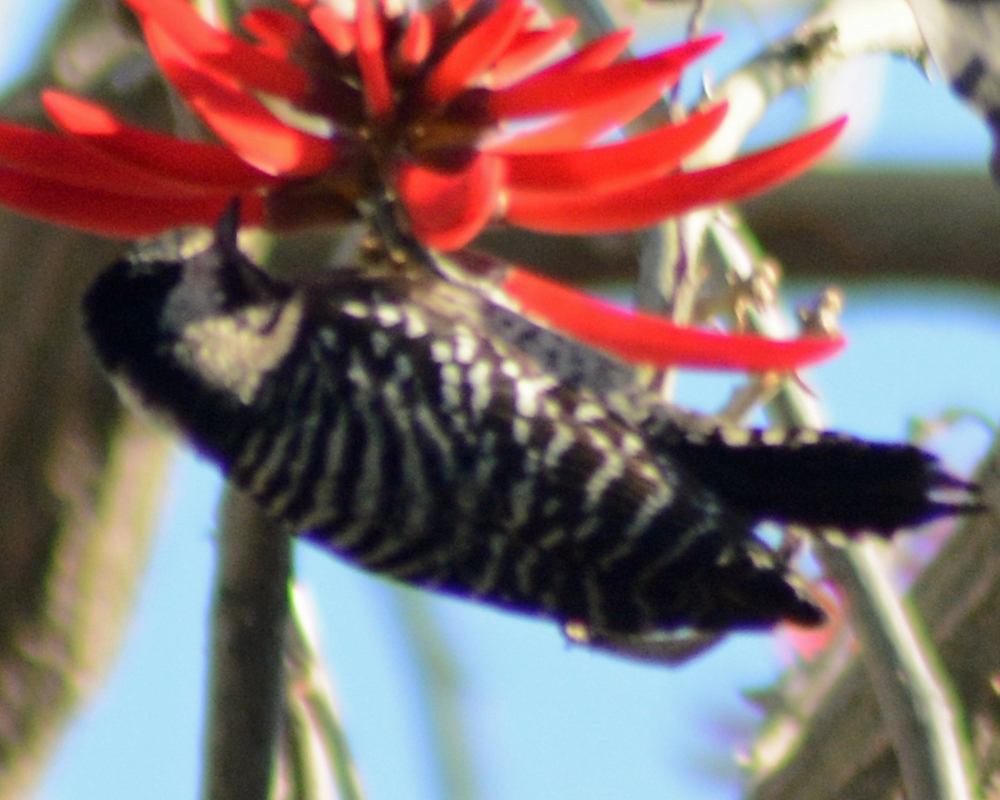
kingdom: Animalia
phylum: Chordata
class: Aves
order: Piciformes
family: Picidae
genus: Dryobates
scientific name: Dryobates scalaris
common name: Ladder-backed woodpecker
